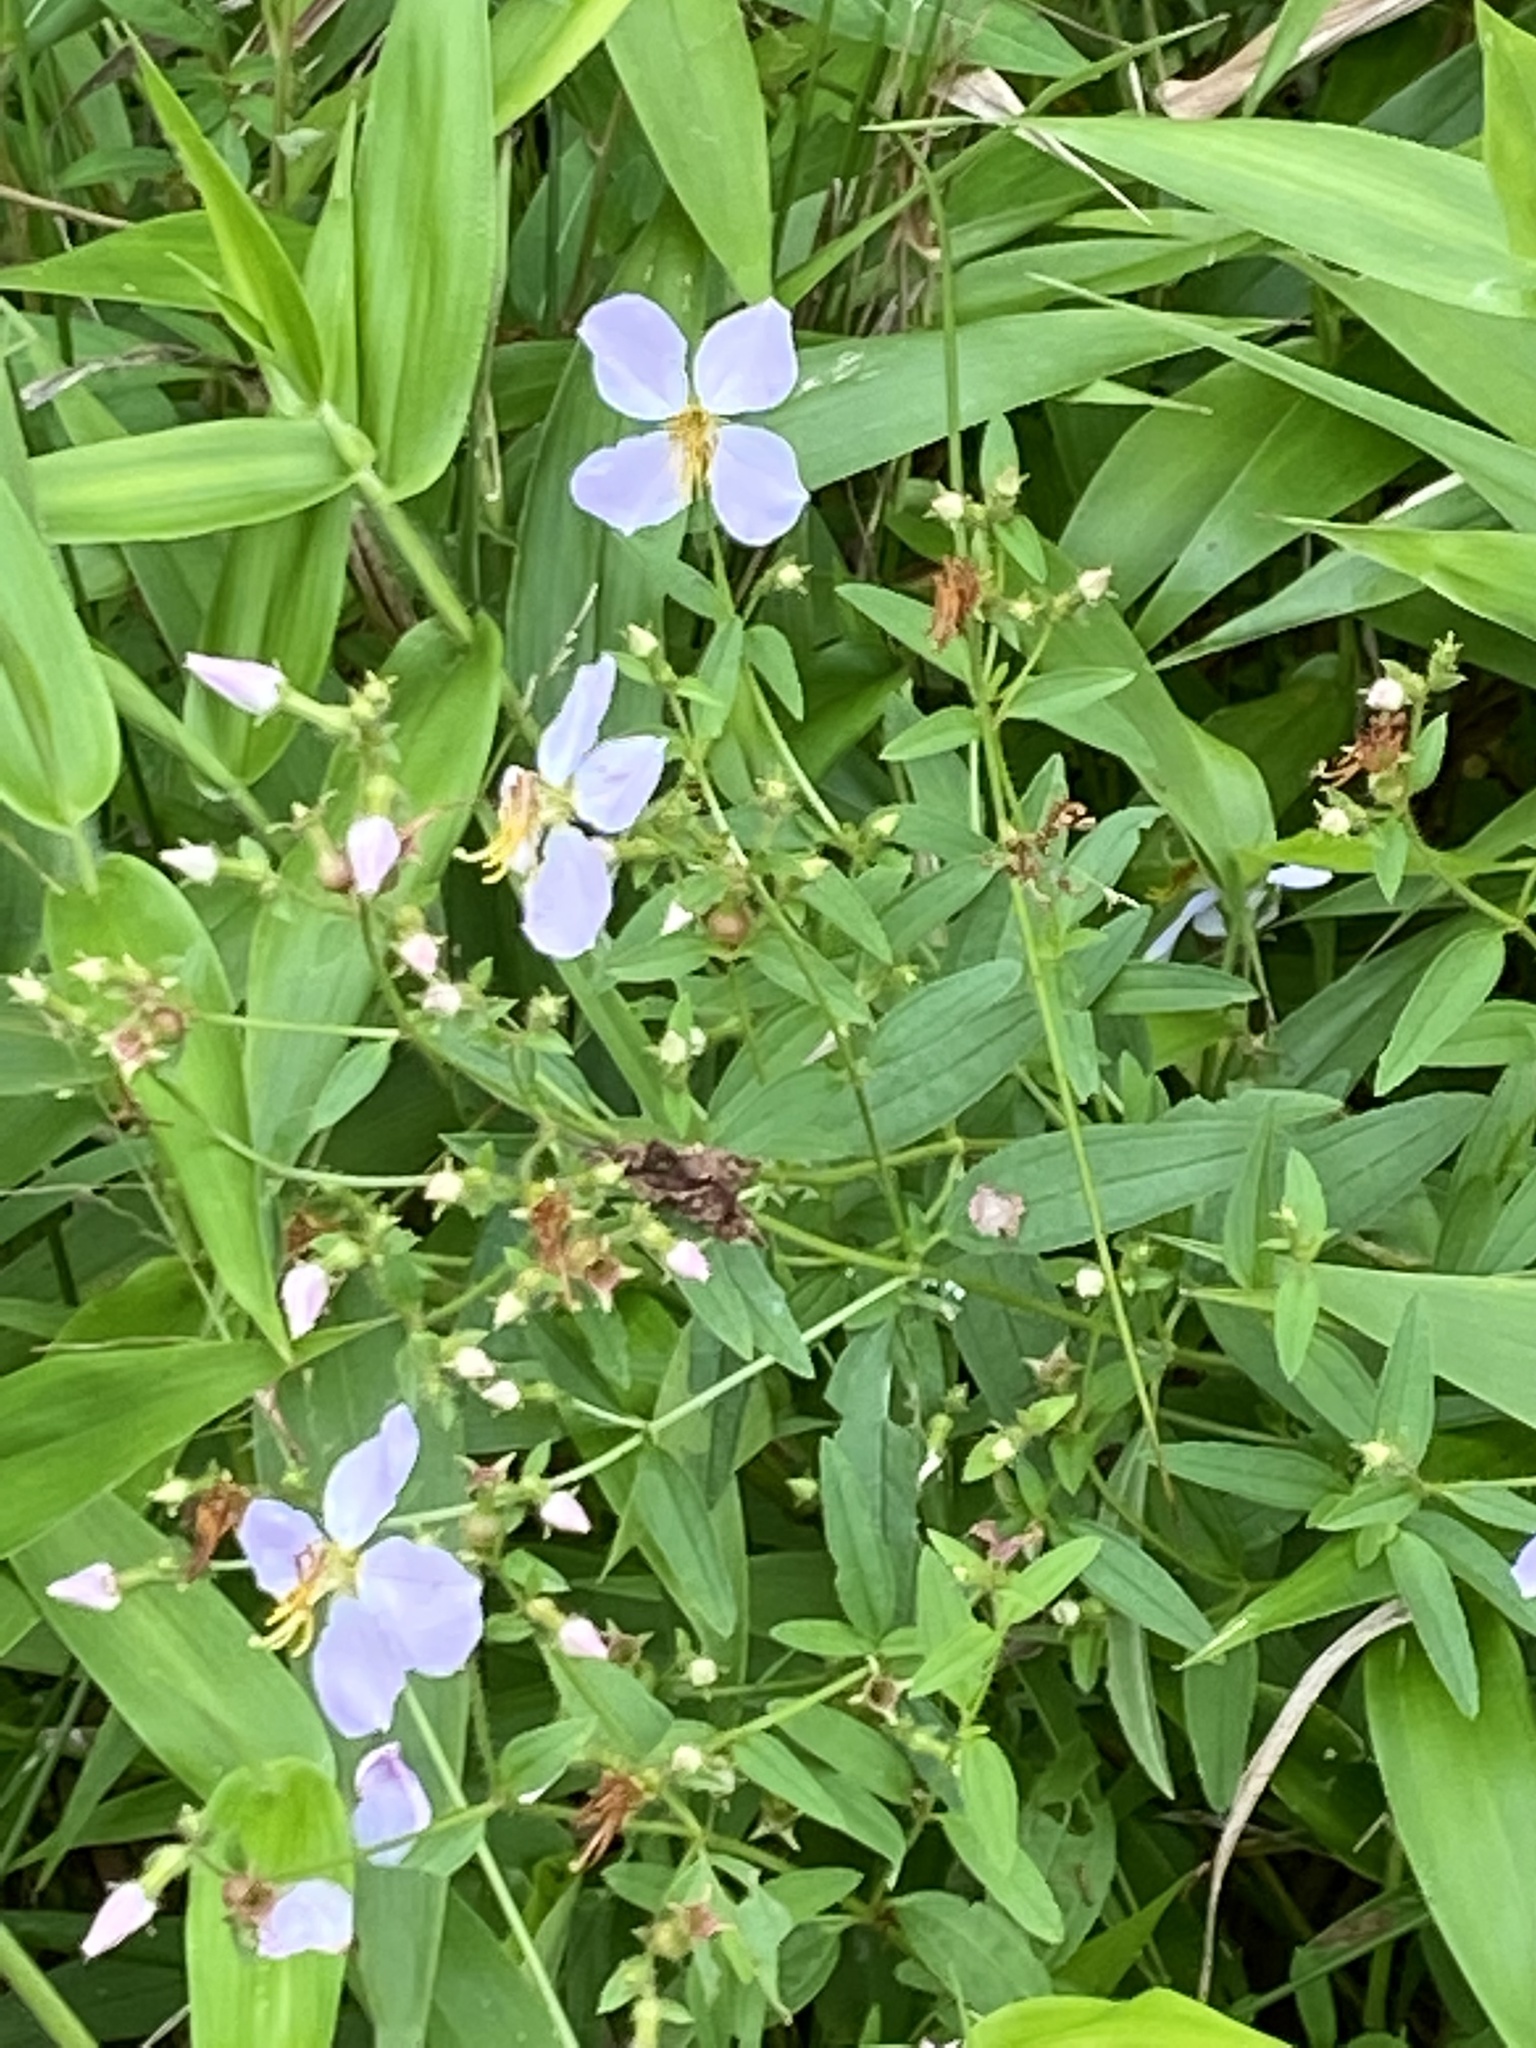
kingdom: Plantae
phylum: Tracheophyta
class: Magnoliopsida
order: Myrtales
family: Melastomataceae
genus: Rhexia
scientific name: Rhexia mariana
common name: Dull meadow-pitcher
